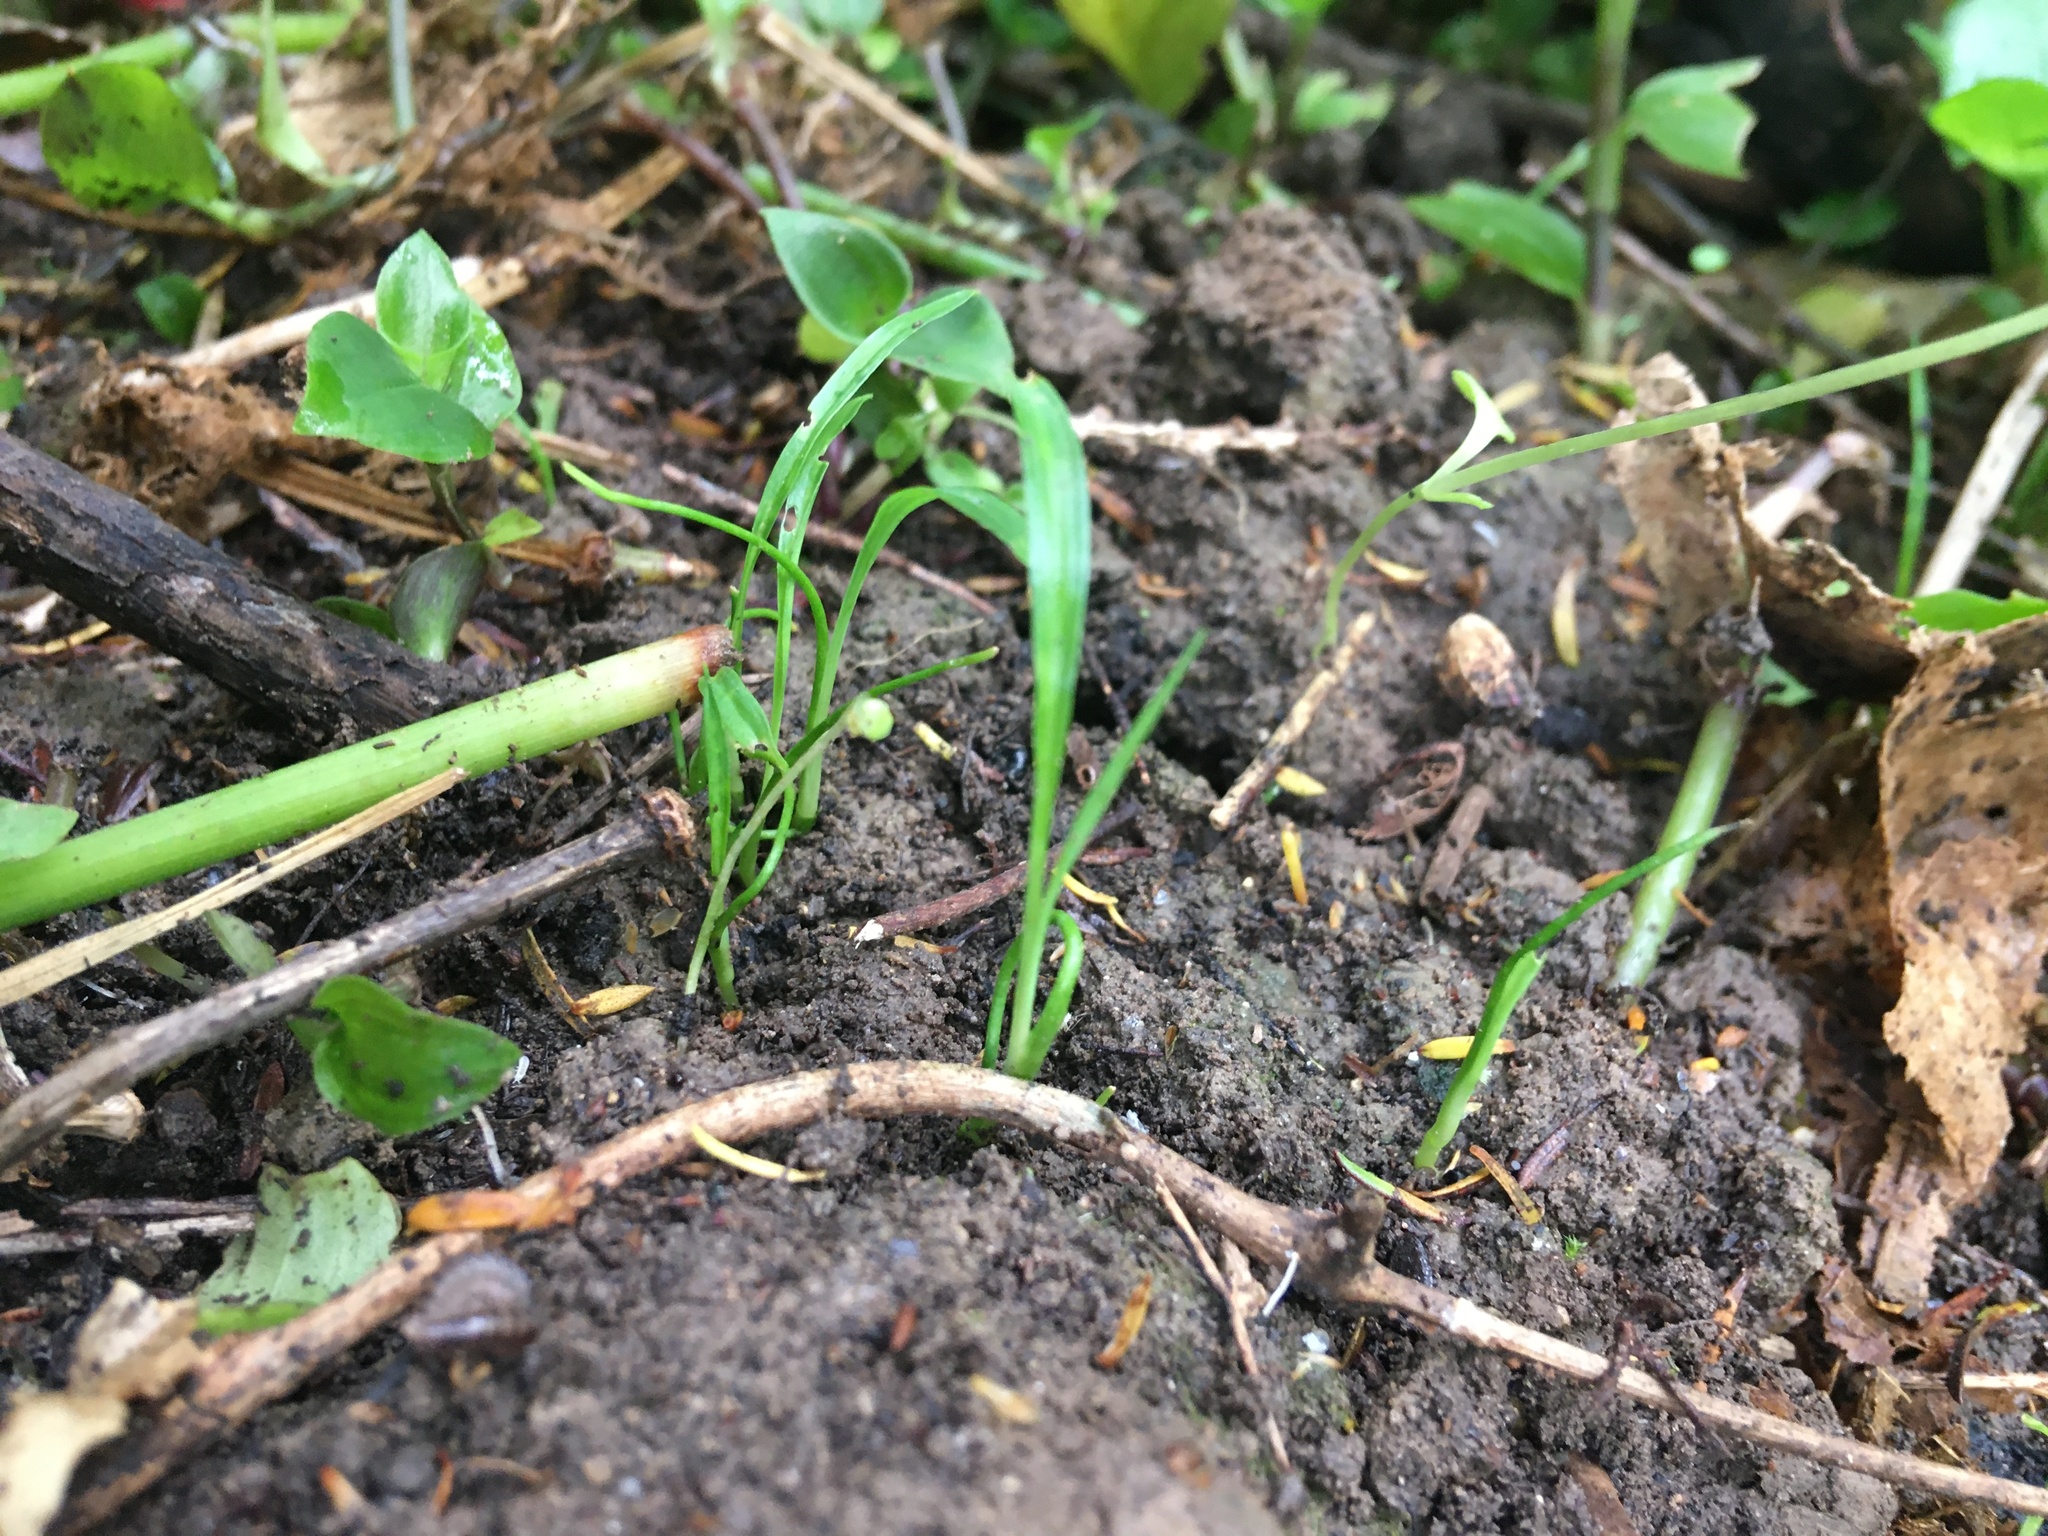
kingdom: Plantae
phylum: Tracheophyta
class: Liliopsida
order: Asparagales
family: Asparagaceae
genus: Cordyline
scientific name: Cordyline australis
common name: Cabbage-palm
